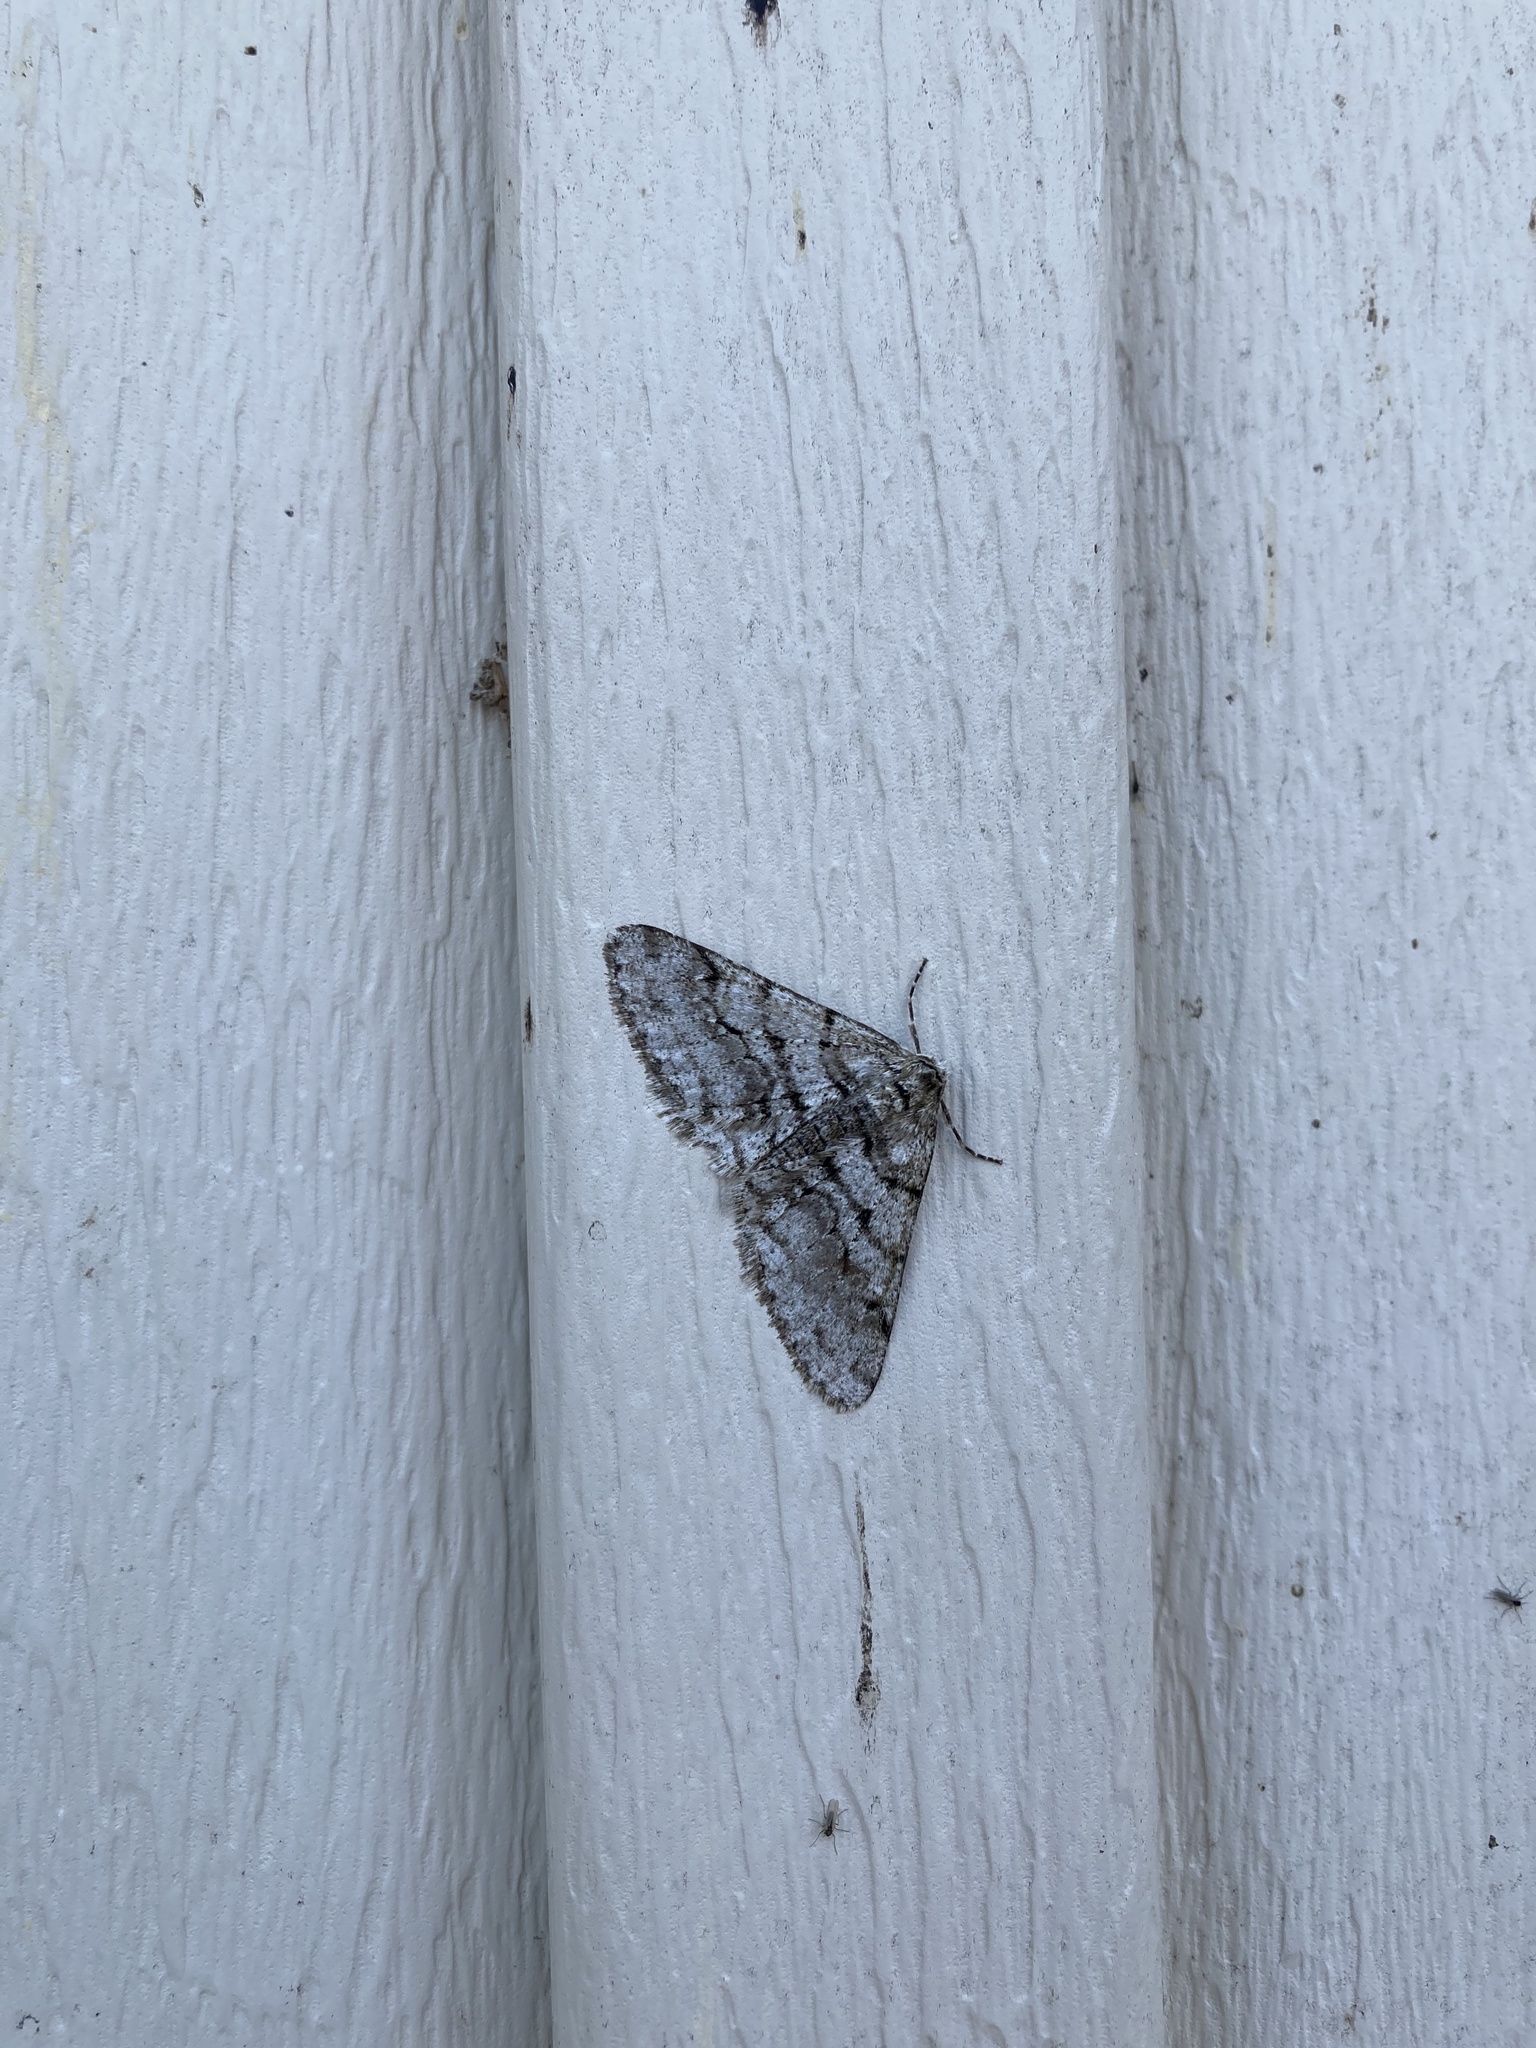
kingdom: Animalia
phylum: Arthropoda
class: Insecta
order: Lepidoptera
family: Geometridae
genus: Phigalia
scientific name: Phigalia titea
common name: Spiny looper
